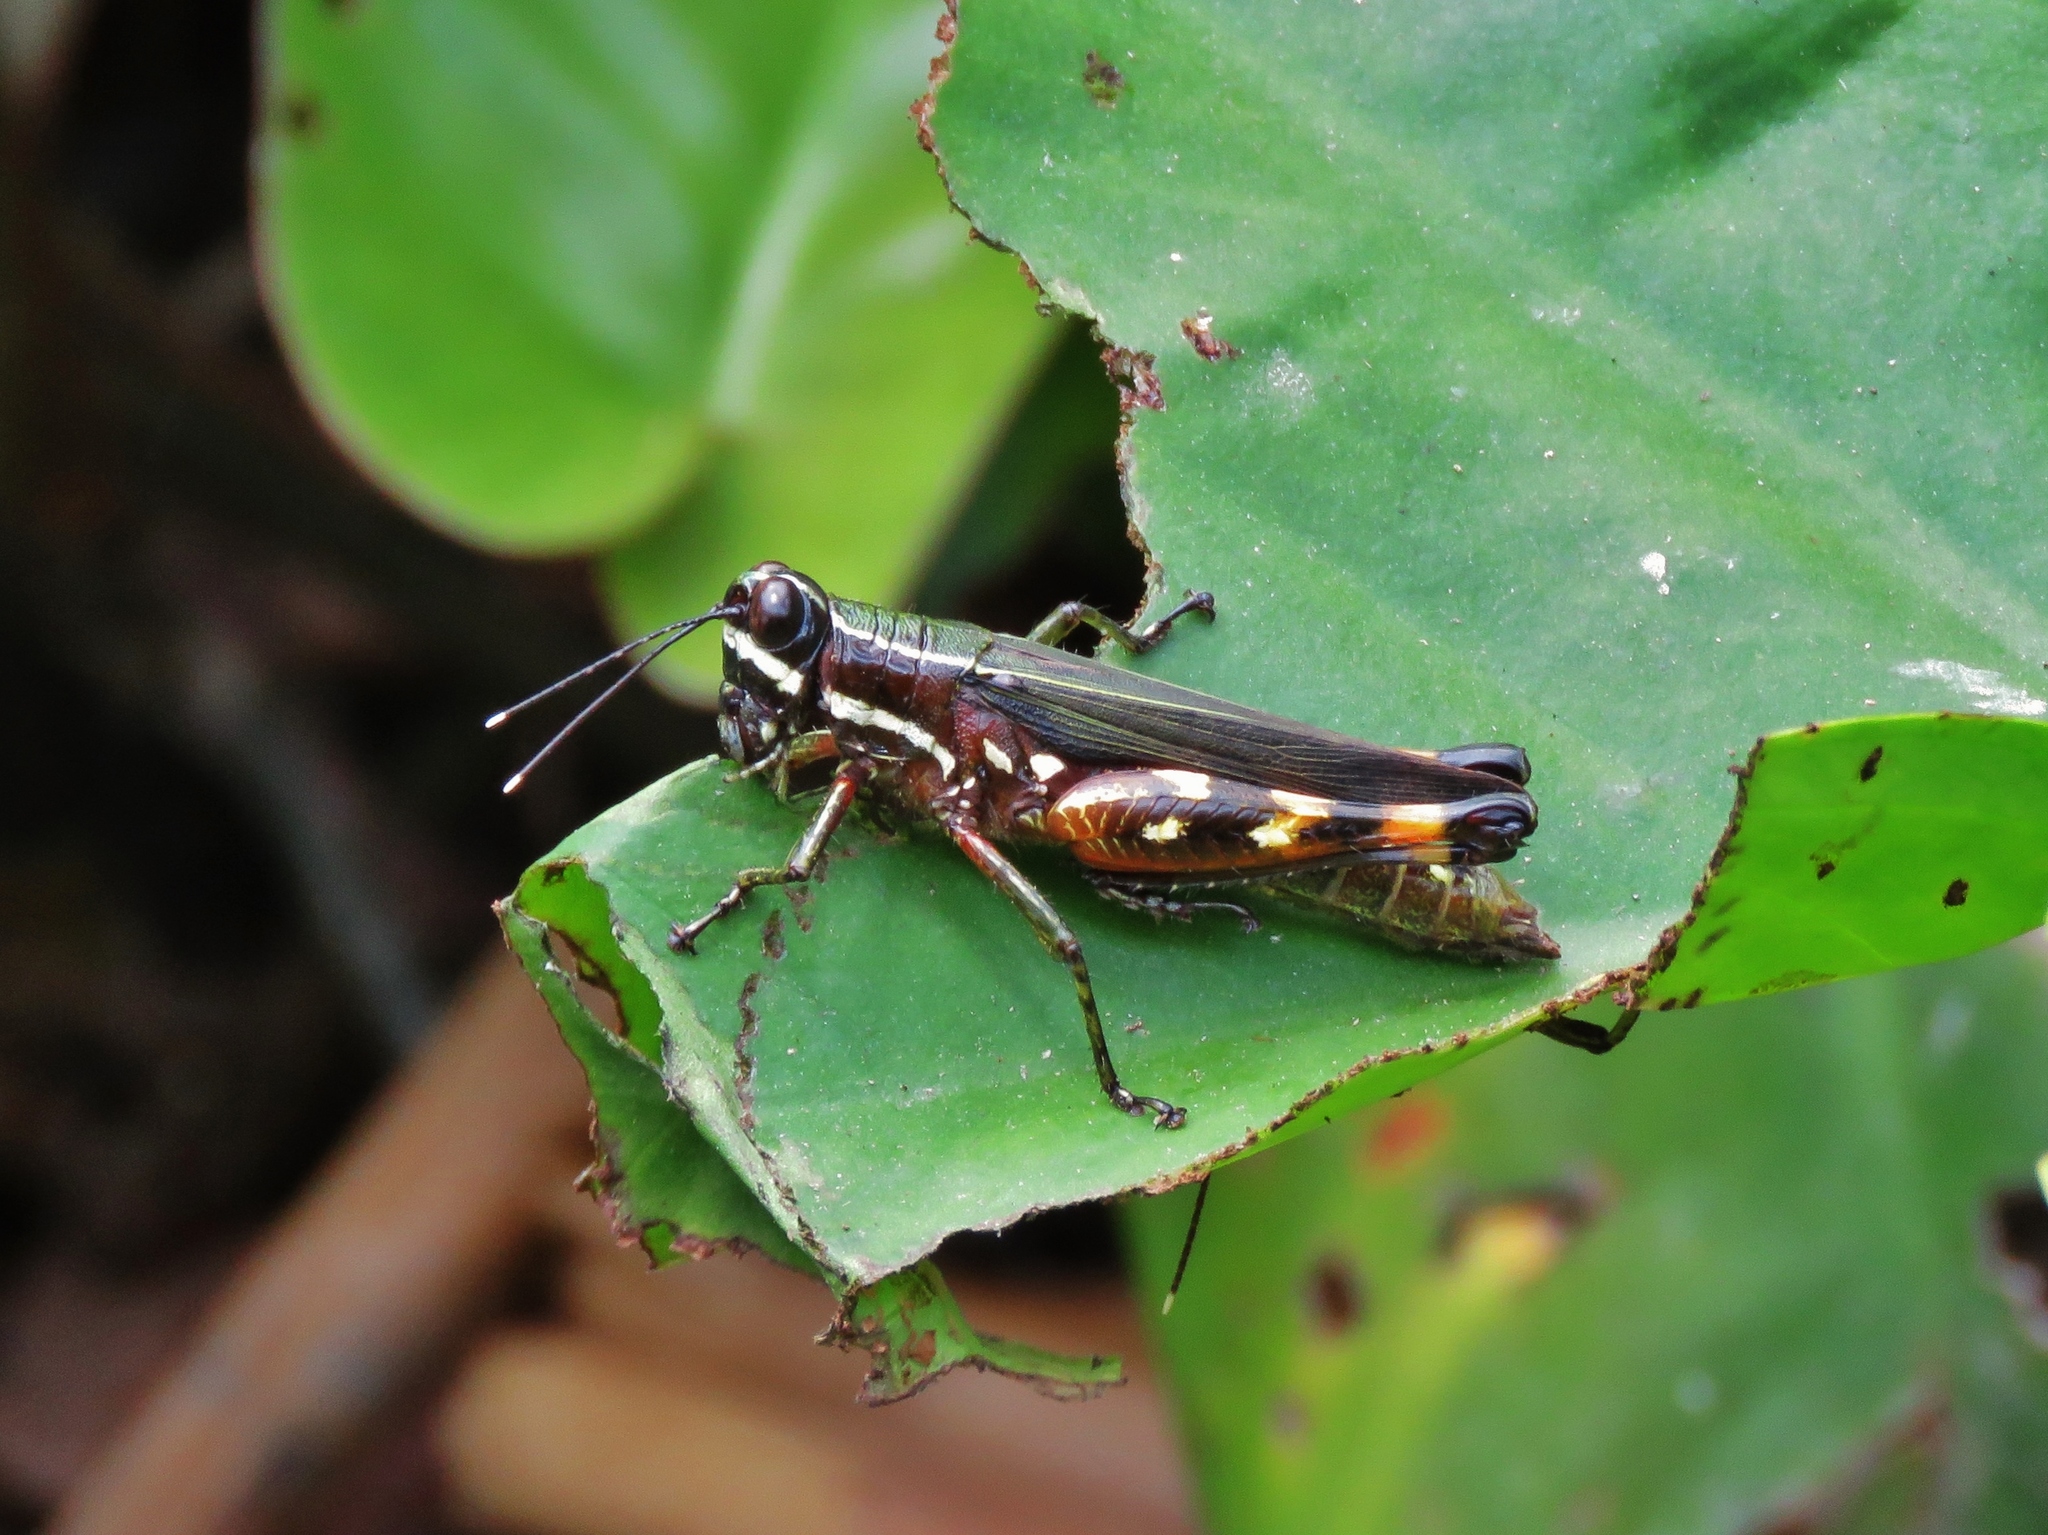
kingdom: Animalia
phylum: Arthropoda
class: Insecta
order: Orthoptera
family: Acrididae
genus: Tetrataenia
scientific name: Tetrataenia surinama
